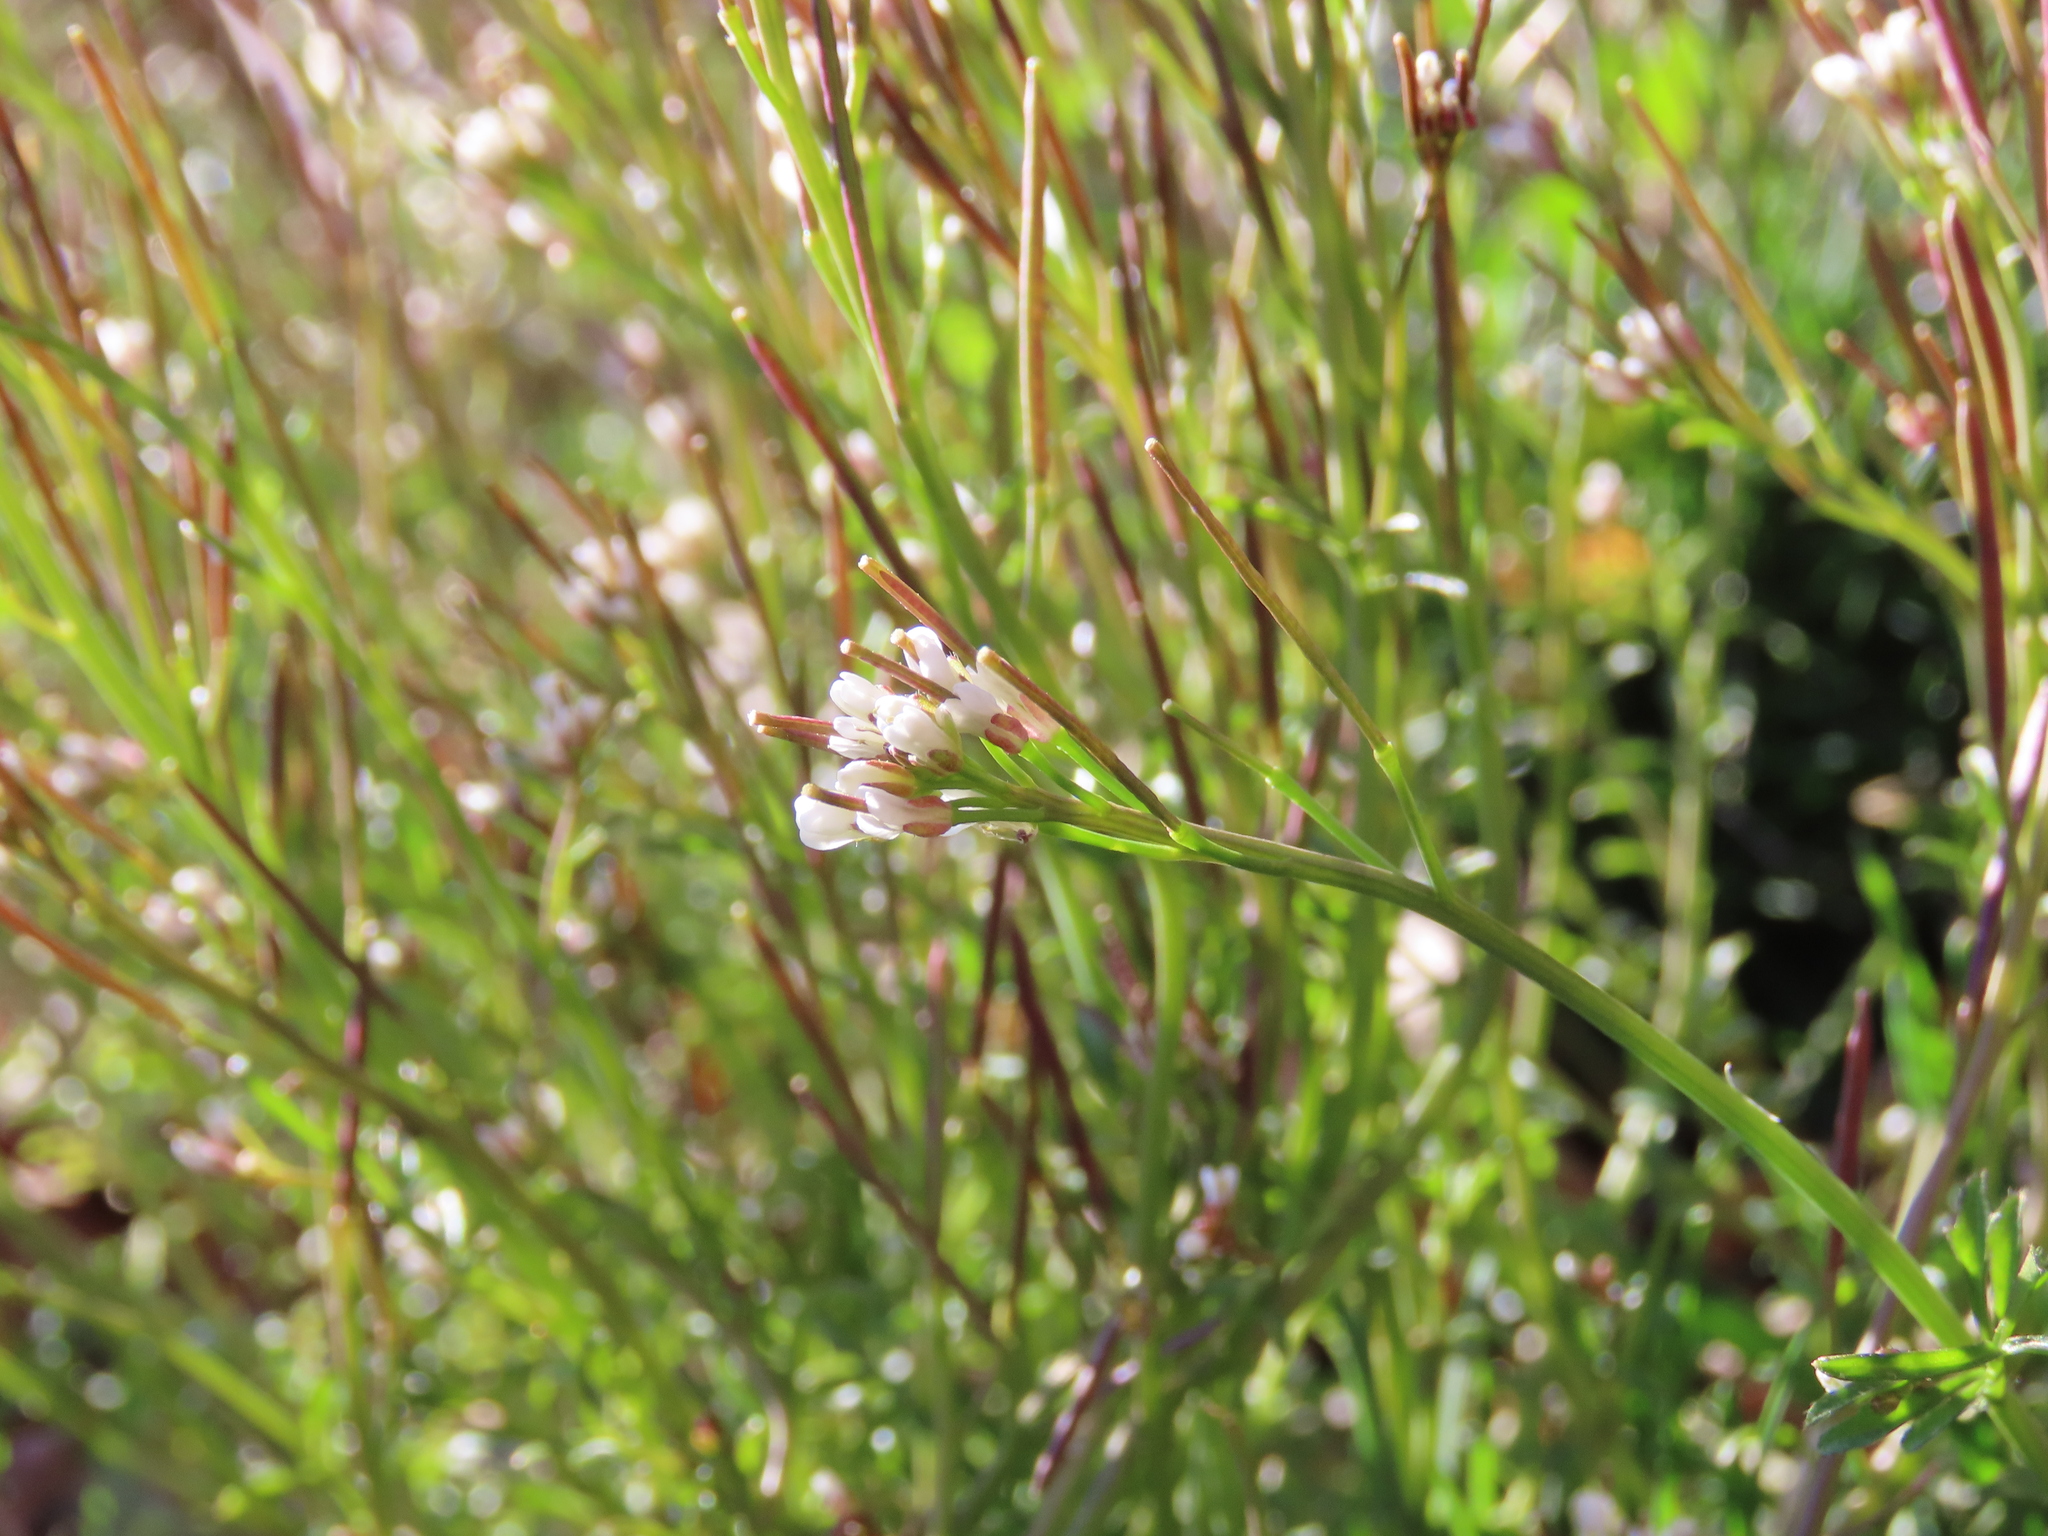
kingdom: Plantae
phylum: Tracheophyta
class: Magnoliopsida
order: Brassicales
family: Brassicaceae
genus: Cardamine
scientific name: Cardamine hirsuta
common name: Hairy bittercress
